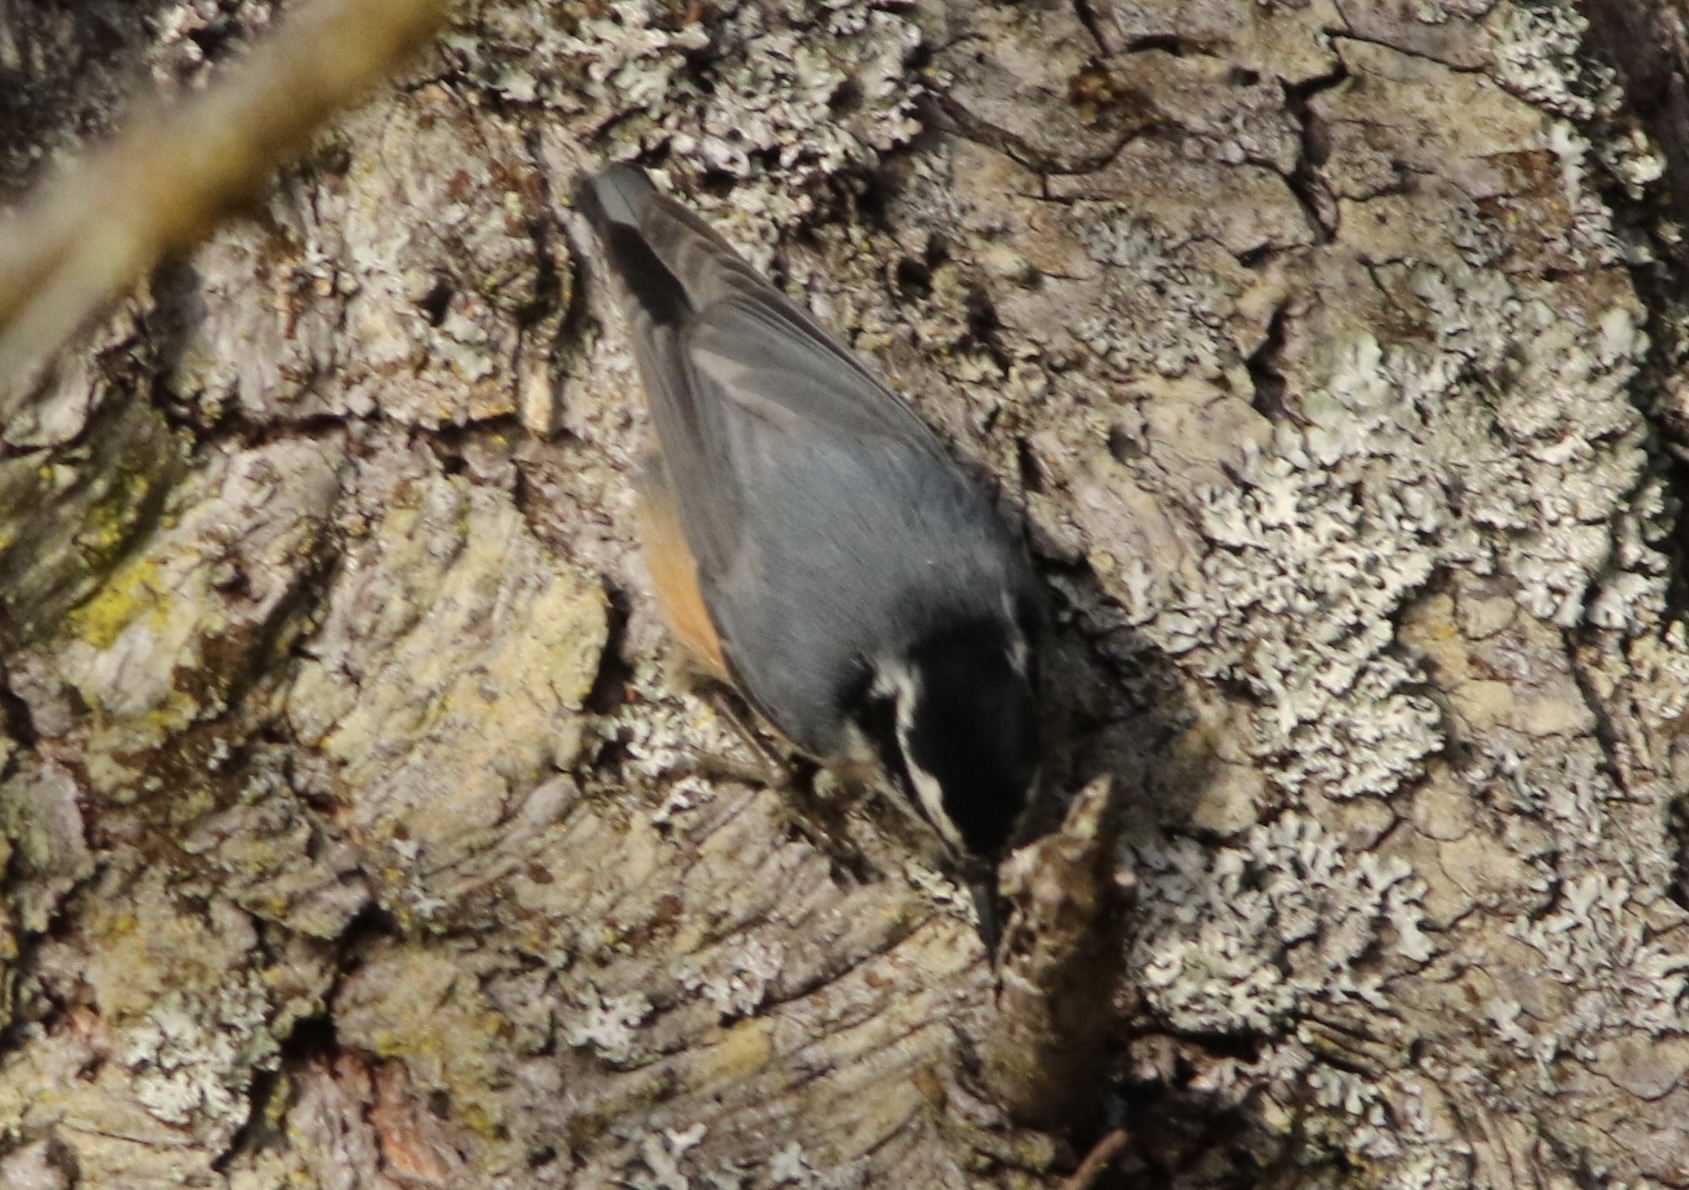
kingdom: Animalia
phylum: Chordata
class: Aves
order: Passeriformes
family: Sittidae
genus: Sitta
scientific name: Sitta canadensis
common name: Red-breasted nuthatch
